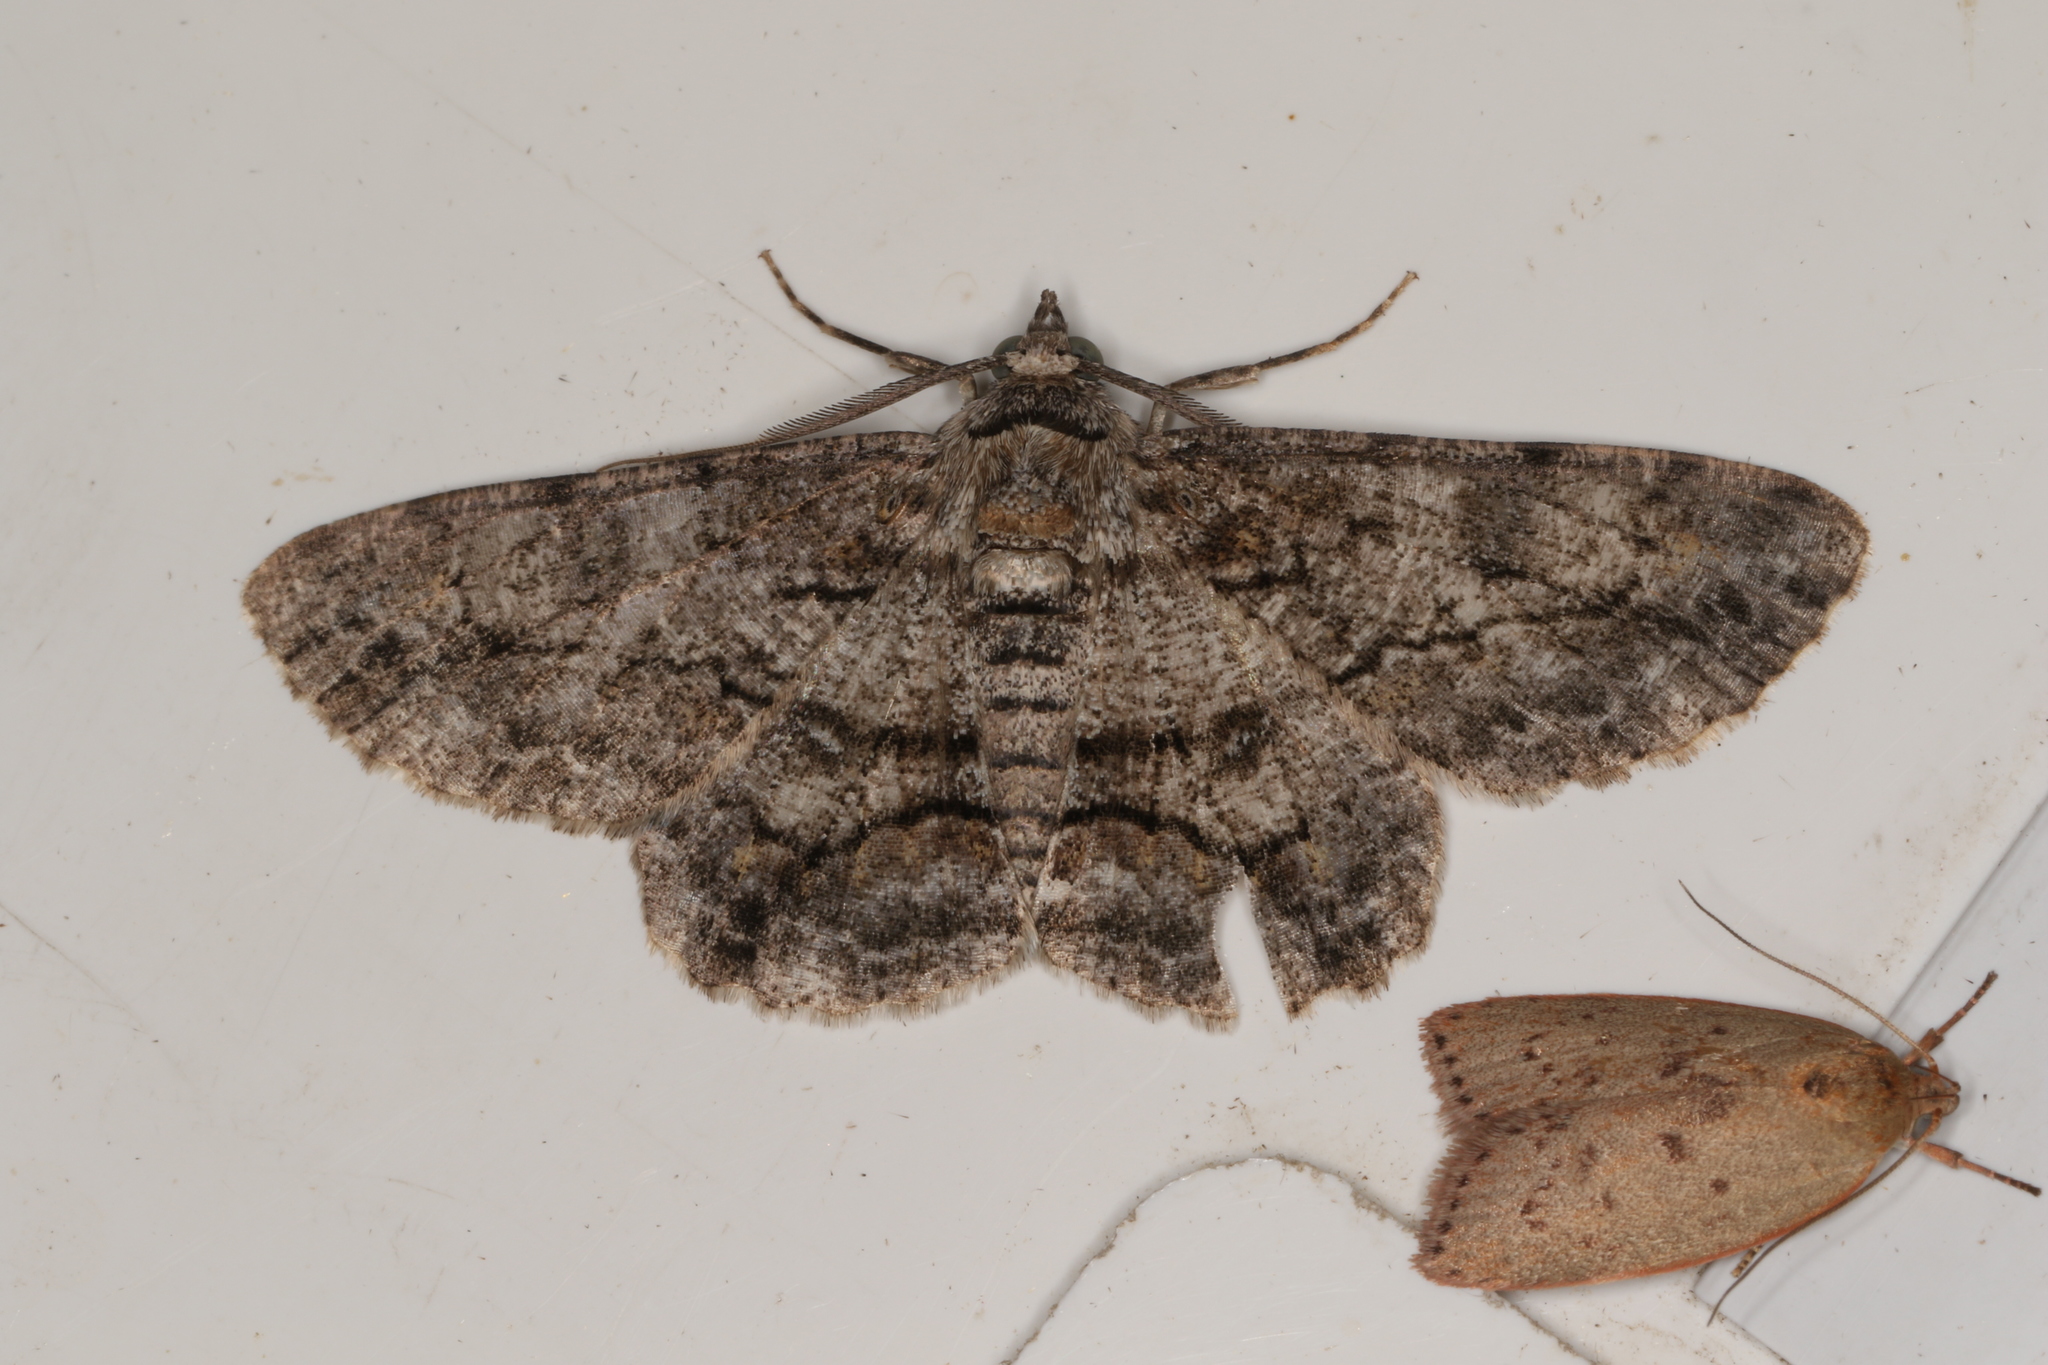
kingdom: Animalia
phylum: Arthropoda
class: Insecta
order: Lepidoptera
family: Geometridae
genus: Cleora
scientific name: Cleora injectaria
